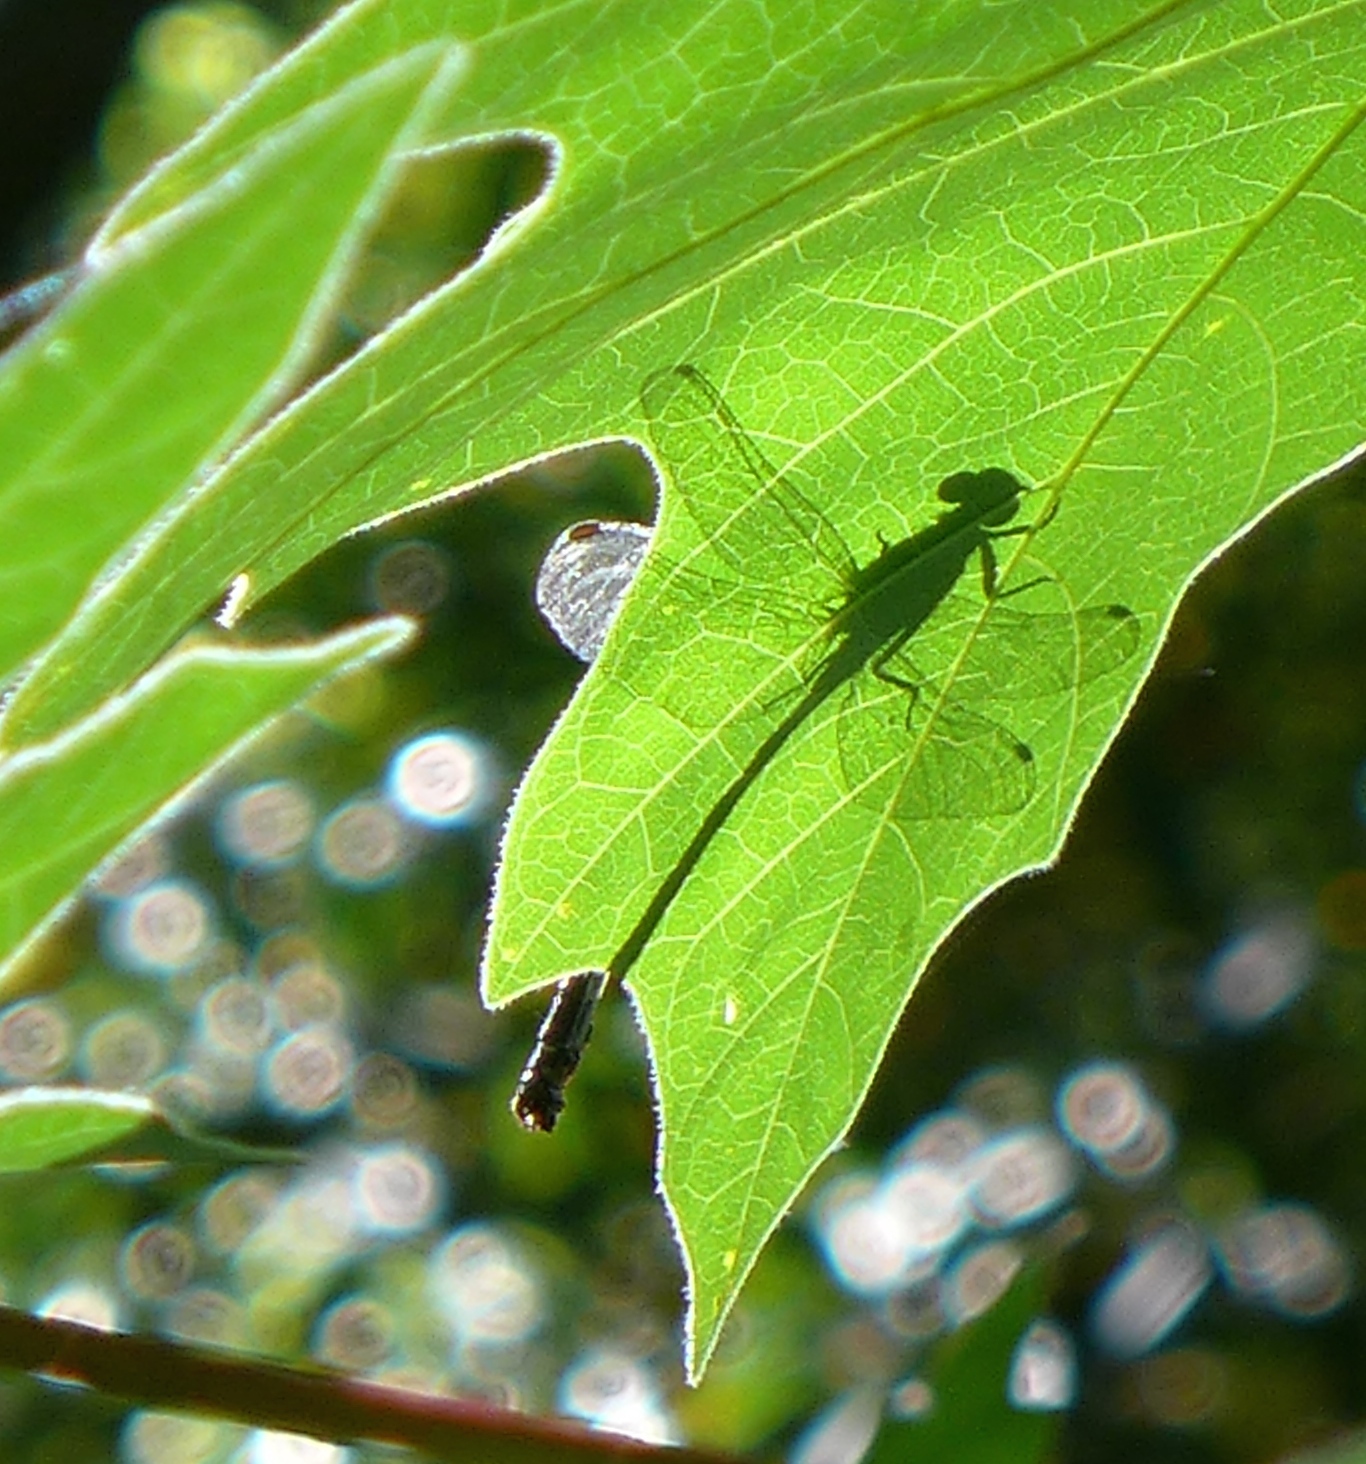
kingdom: Animalia
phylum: Arthropoda
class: Insecta
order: Odonata
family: Gomphidae
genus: Octogomphus
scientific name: Octogomphus specularis
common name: Grappletail
